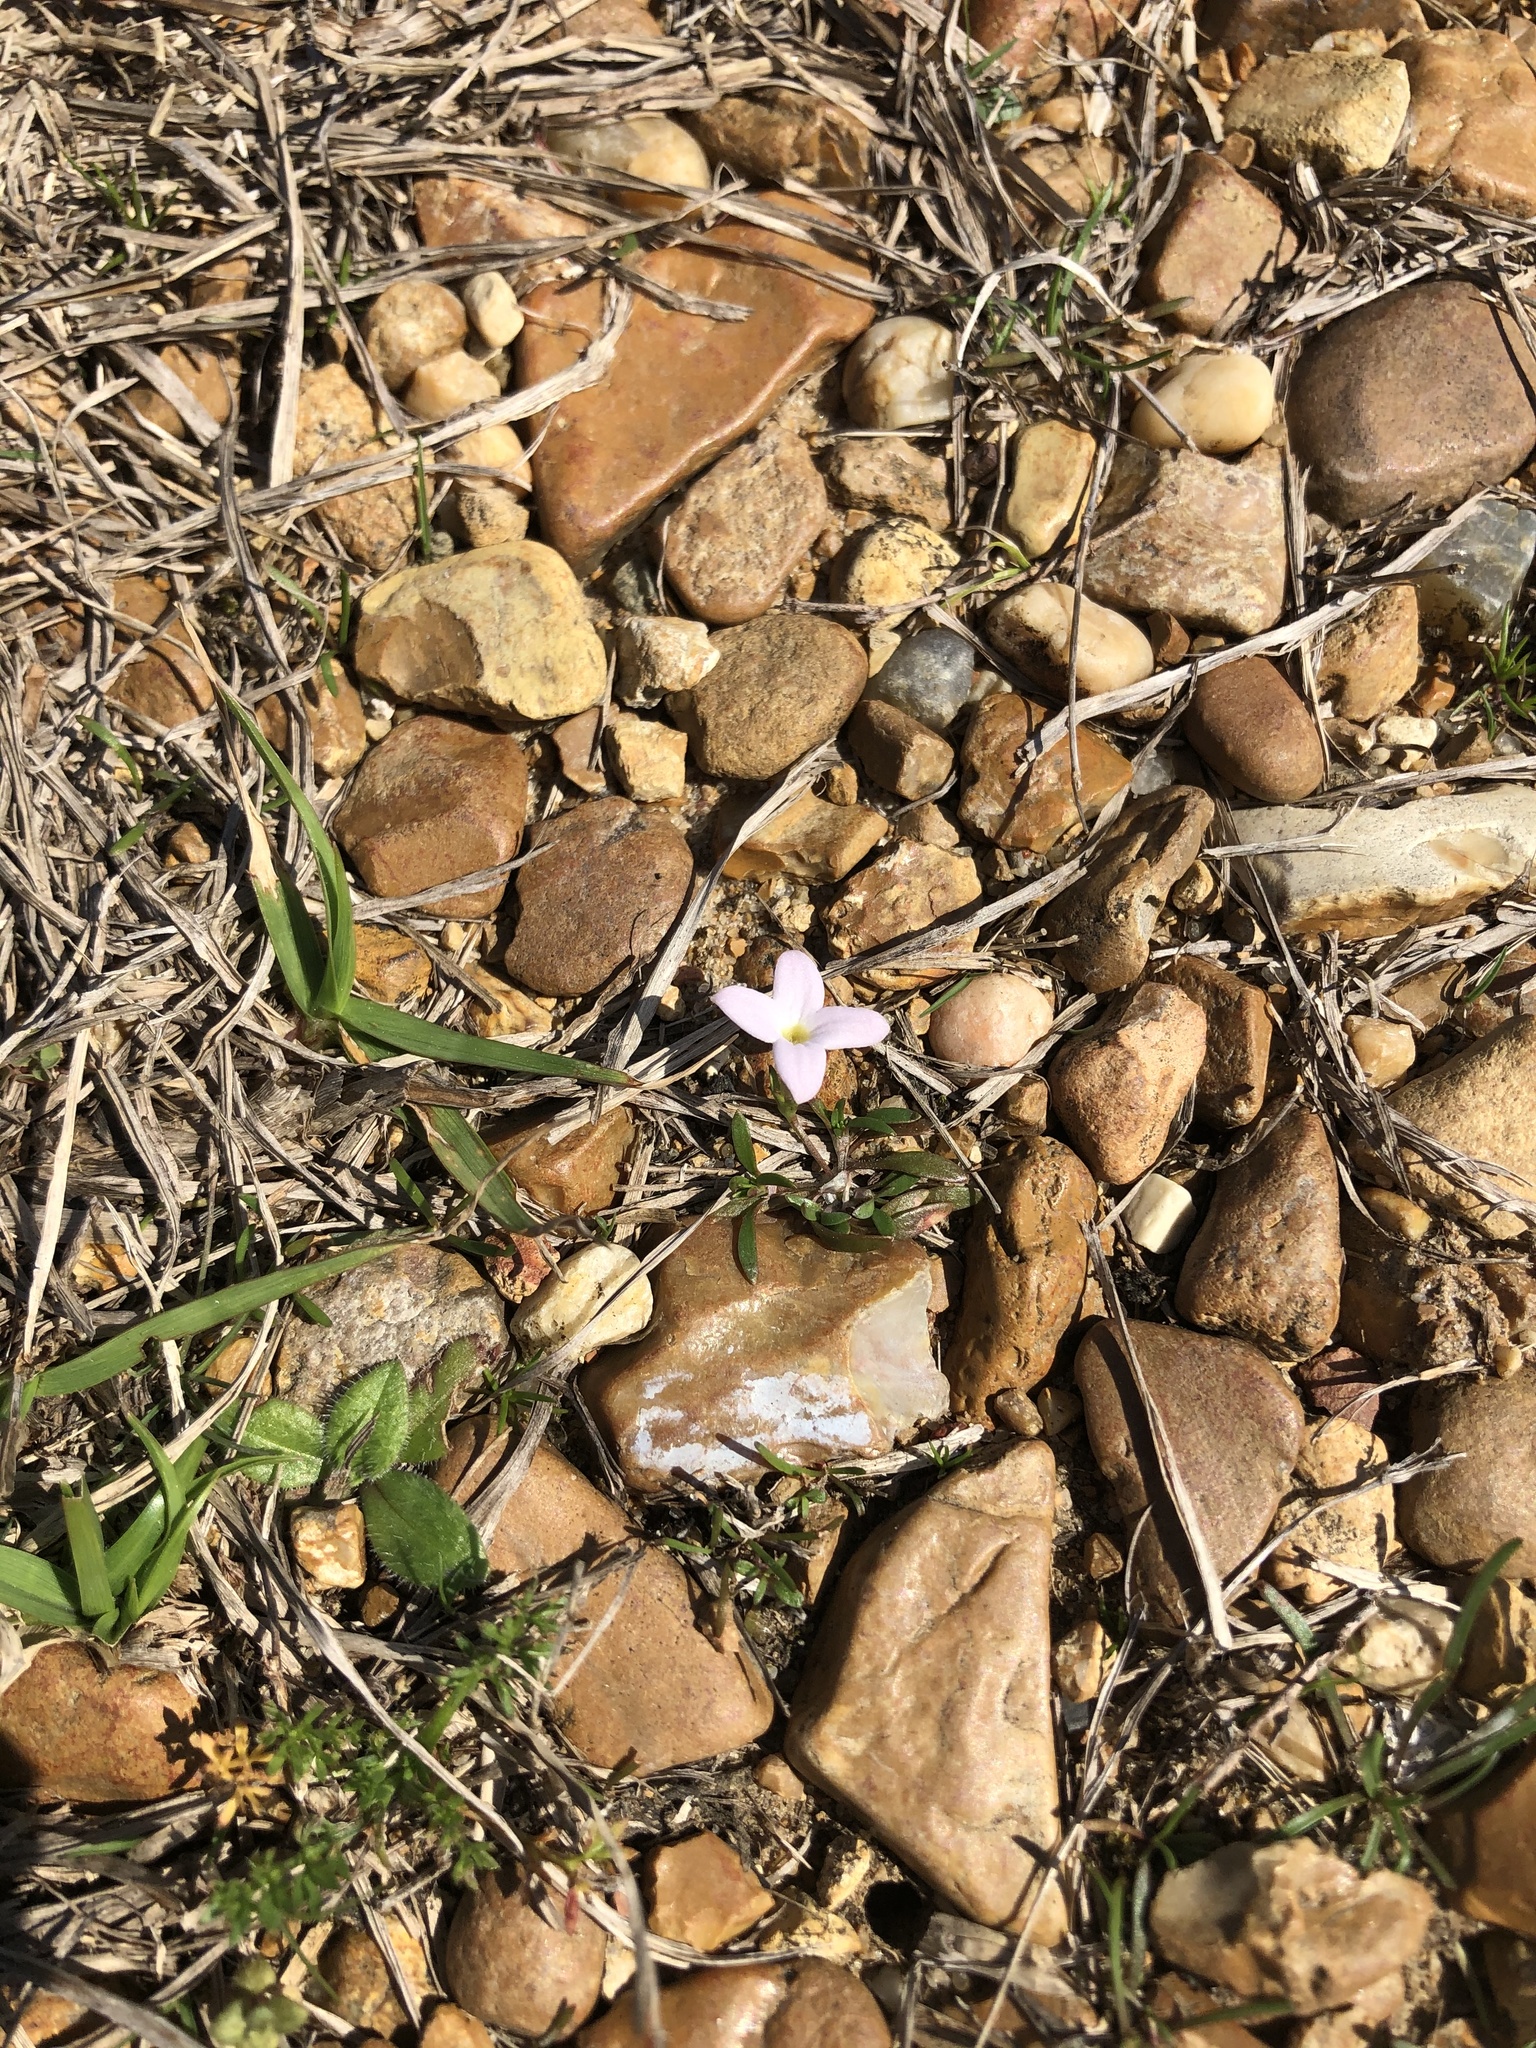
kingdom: Plantae
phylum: Tracheophyta
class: Magnoliopsida
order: Gentianales
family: Rubiaceae
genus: Houstonia
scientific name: Houstonia rosea
